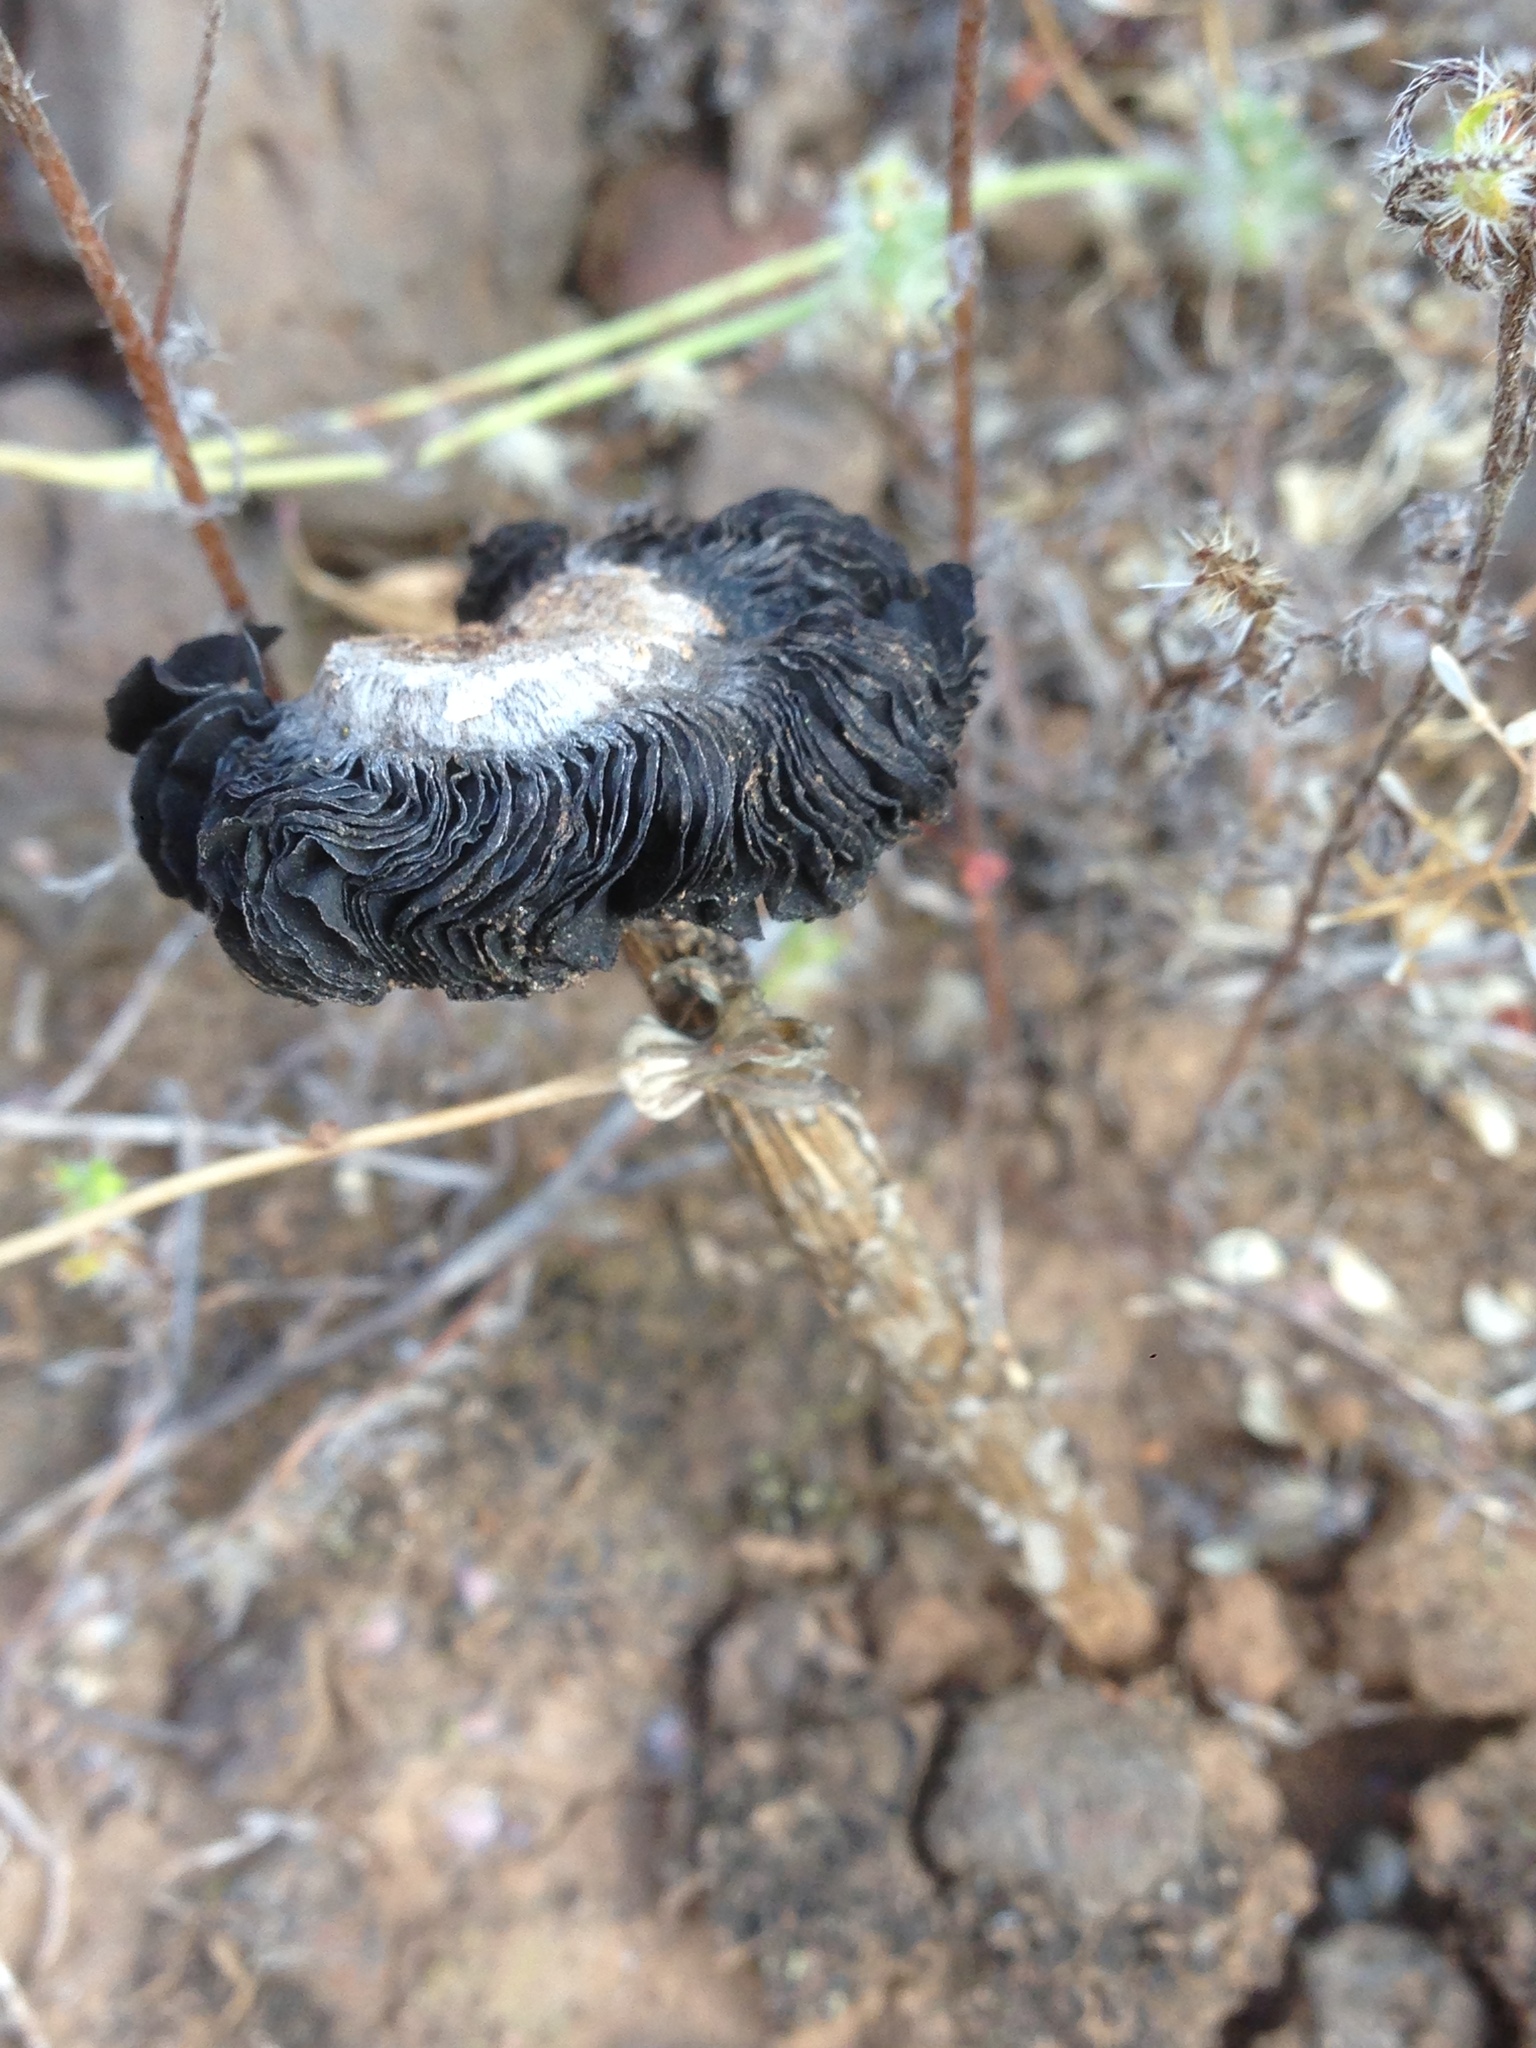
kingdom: Fungi
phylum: Basidiomycota
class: Agaricomycetes
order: Agaricales
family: Agaricaceae
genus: Montagnea
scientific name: Montagnea arenaria
